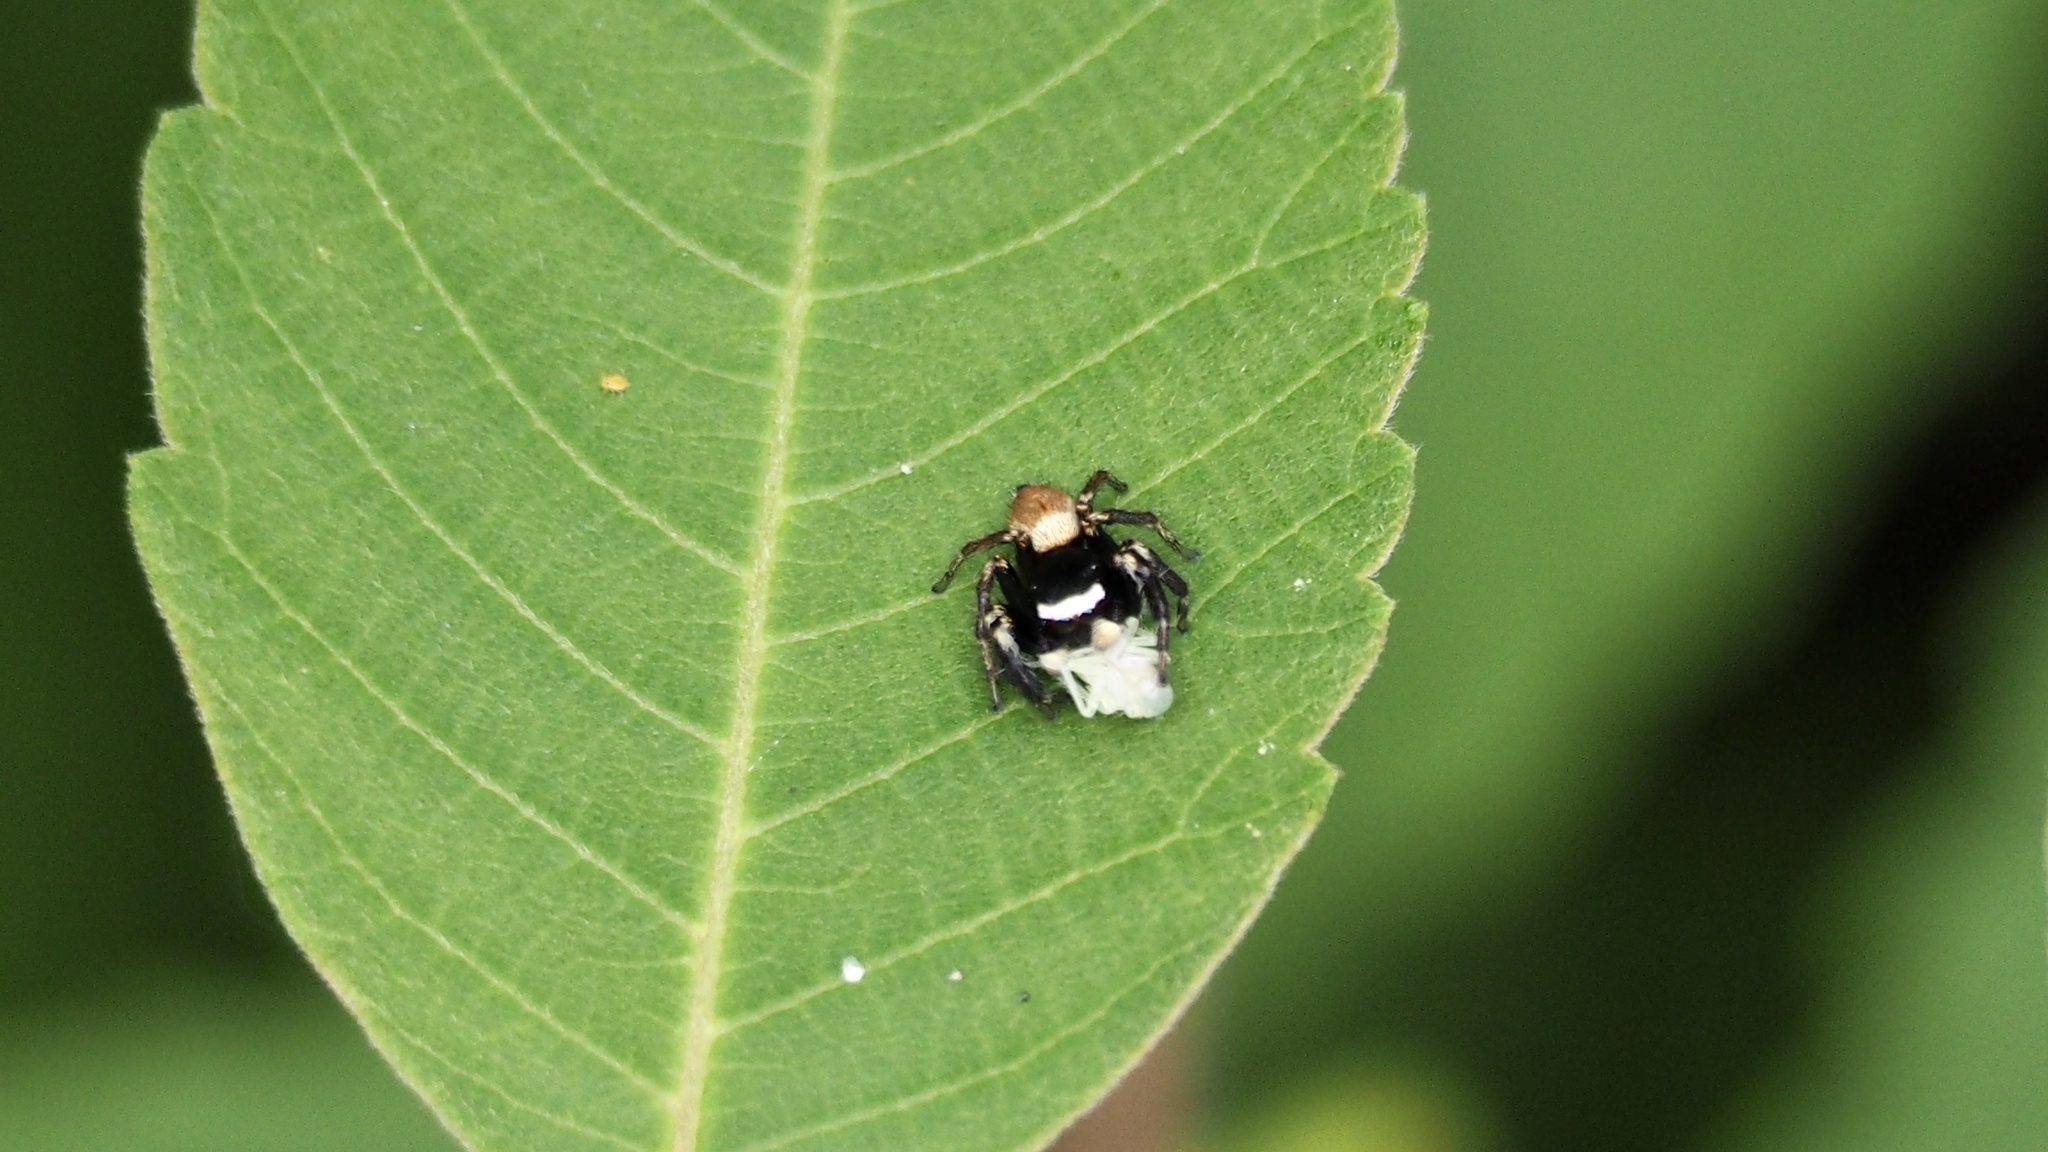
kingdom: Animalia
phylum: Arthropoda
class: Arachnida
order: Araneae
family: Salticidae
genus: Evarcha
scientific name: Evarcha albaria
